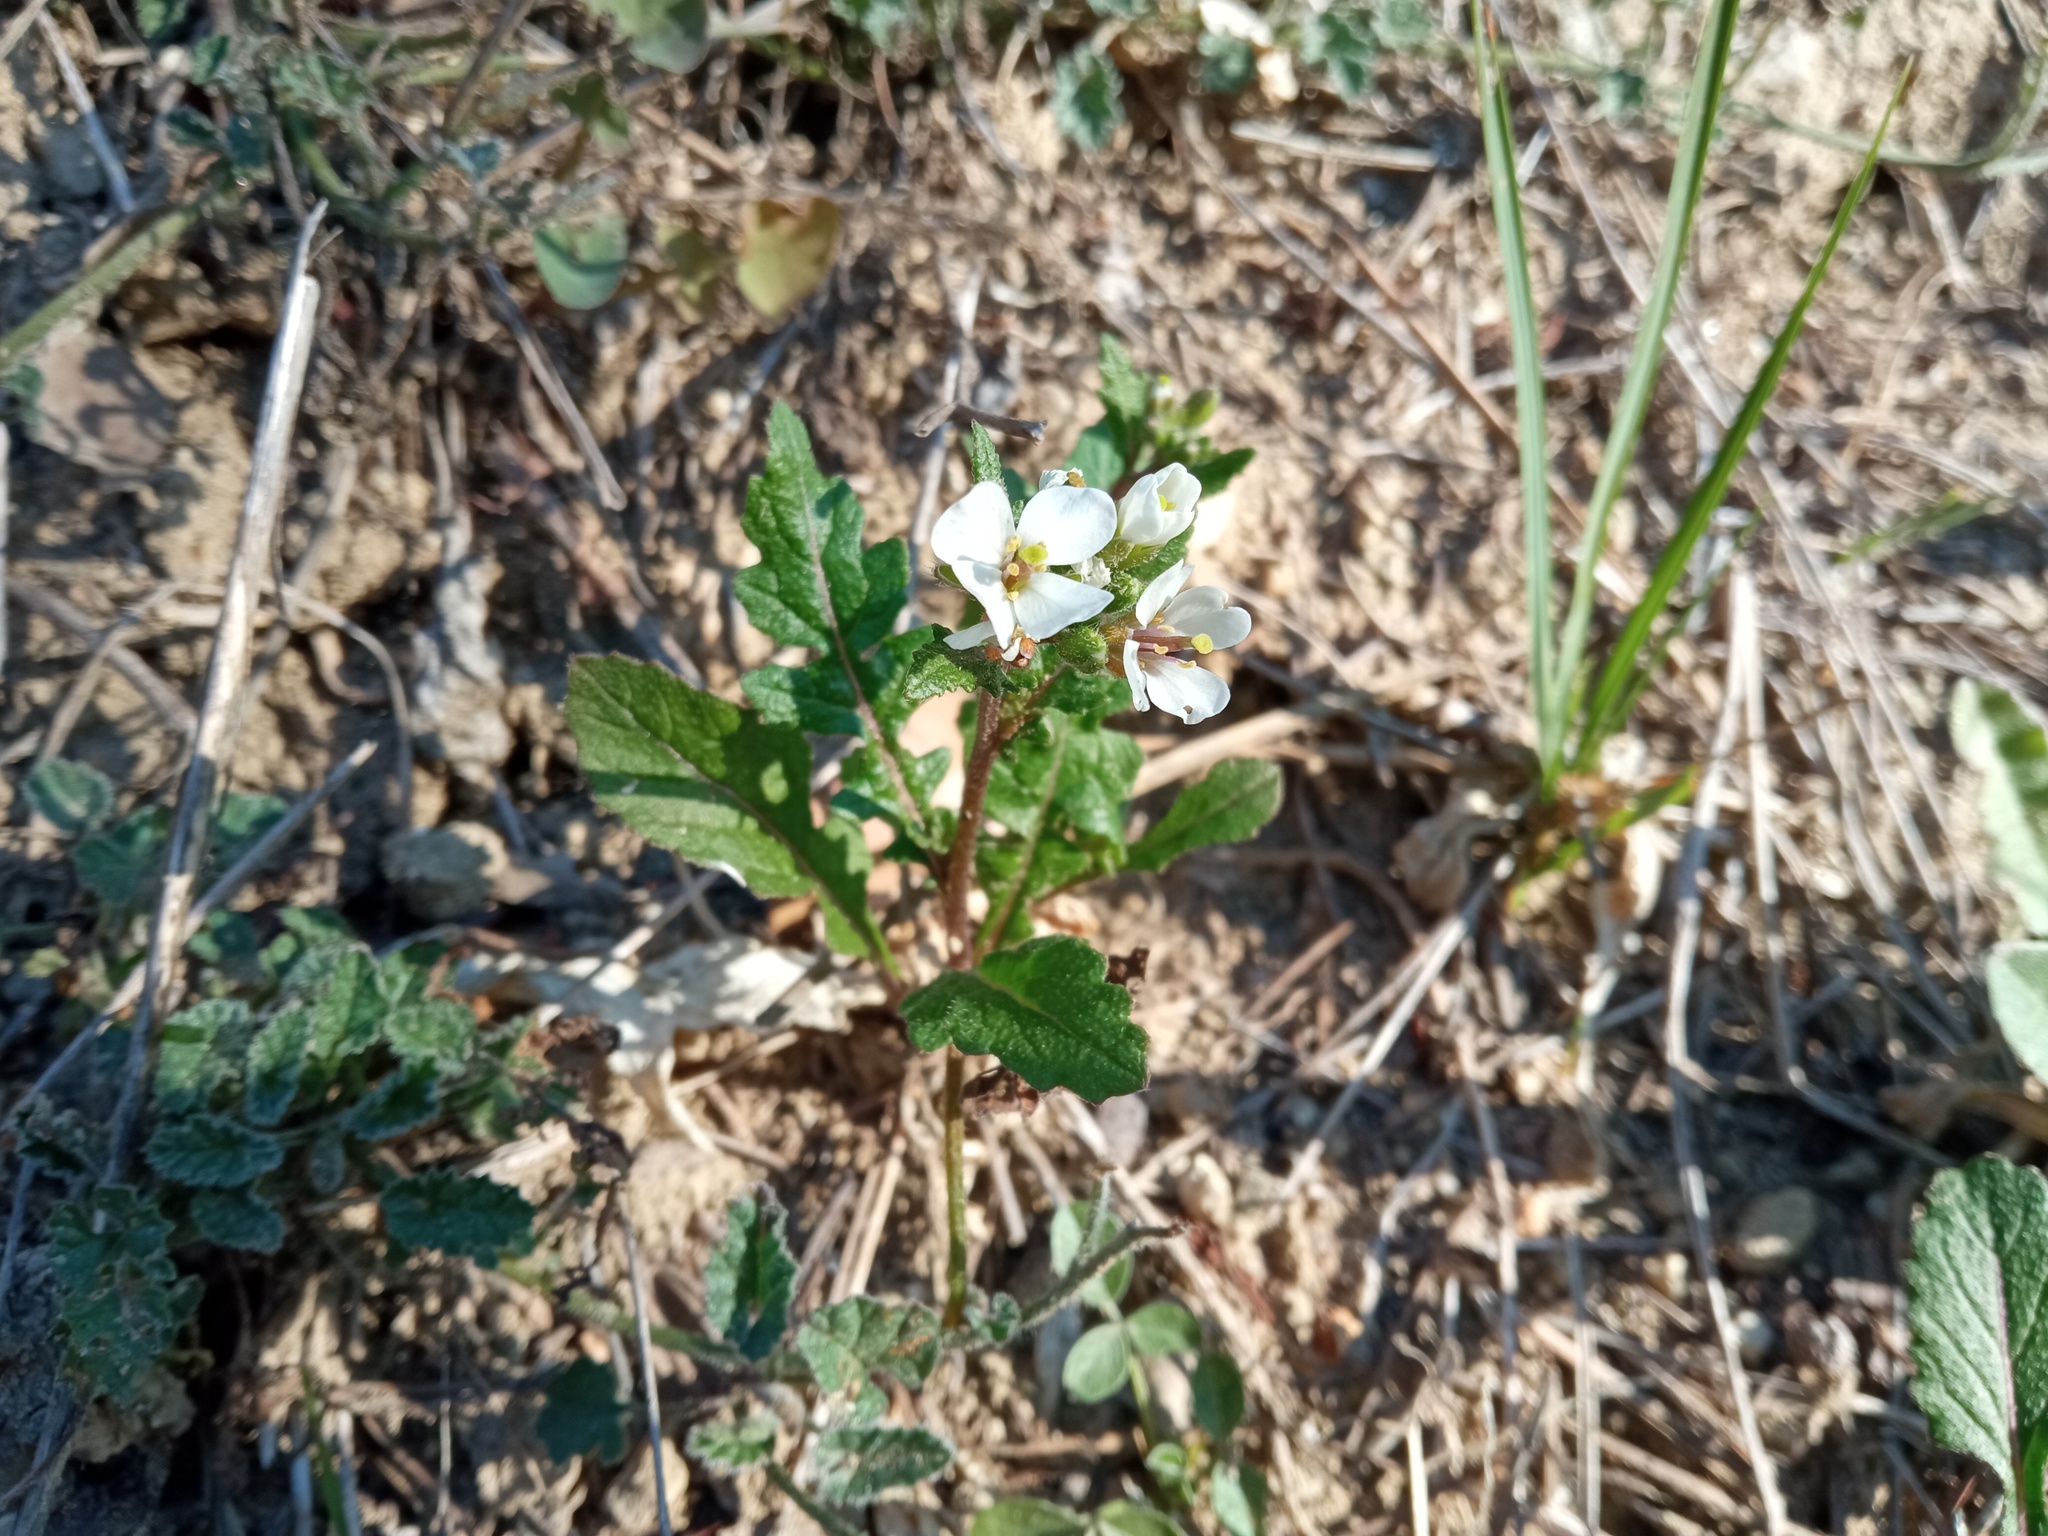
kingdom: Plantae
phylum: Tracheophyta
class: Magnoliopsida
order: Brassicales
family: Brassicaceae
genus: Diplotaxis
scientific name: Diplotaxis erucoides
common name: White rocket
